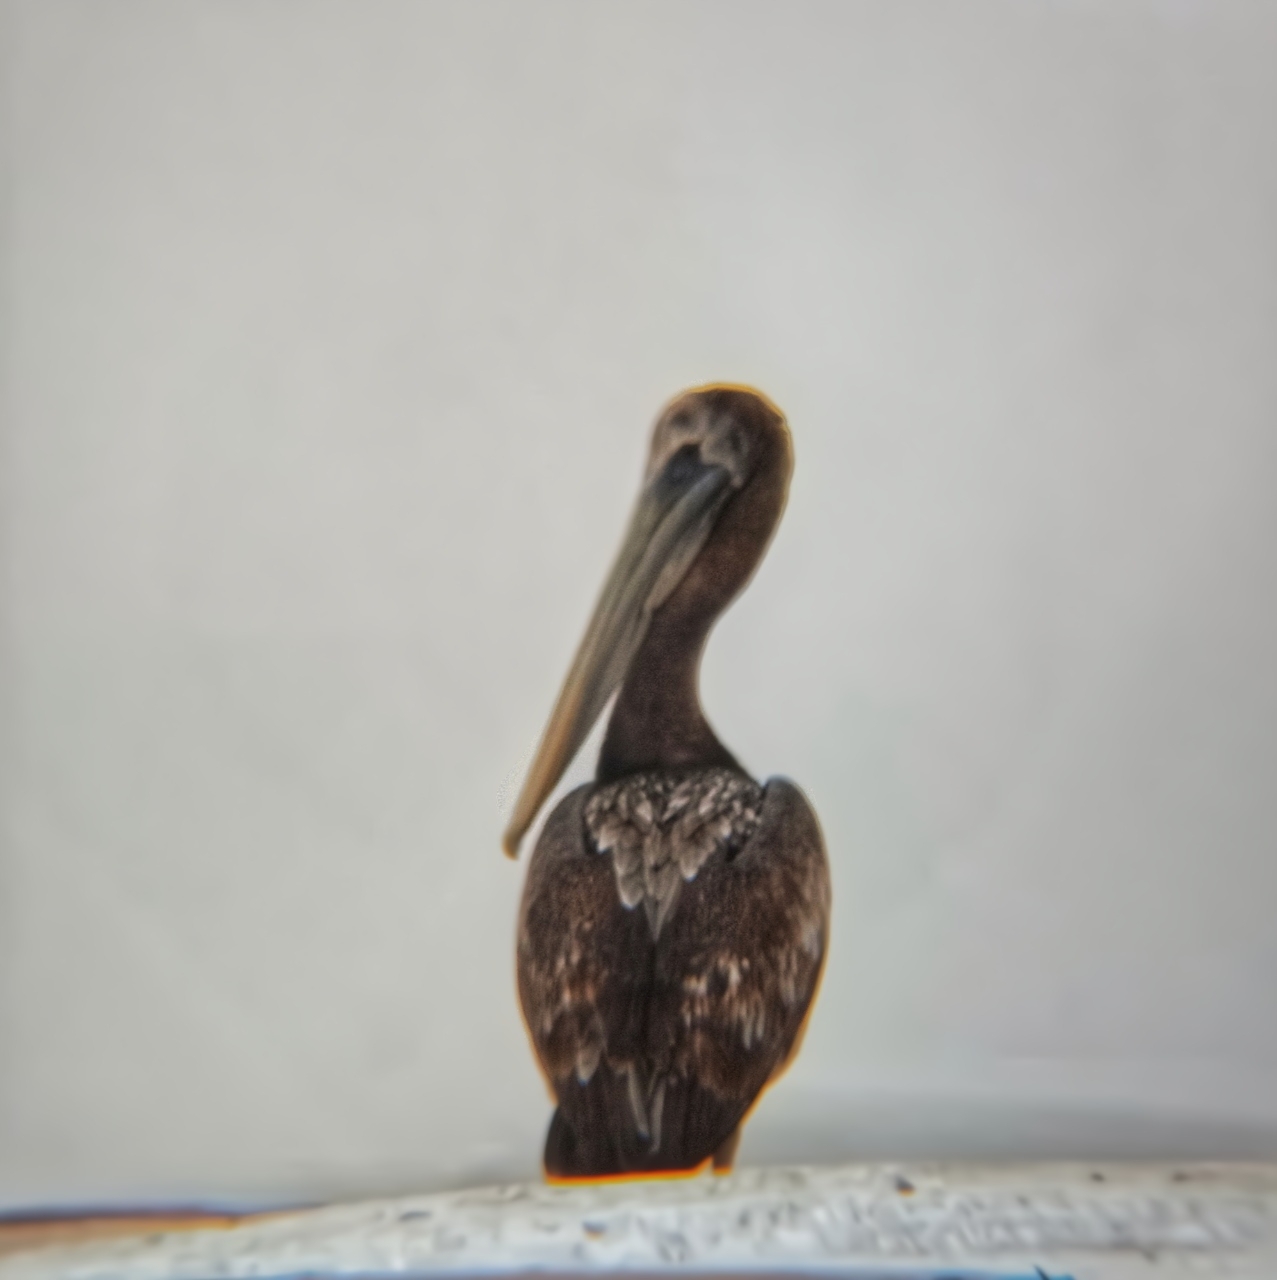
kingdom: Animalia
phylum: Chordata
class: Aves
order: Pelecaniformes
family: Pelecanidae
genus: Pelecanus
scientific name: Pelecanus thagus
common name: Peruvian pelican
